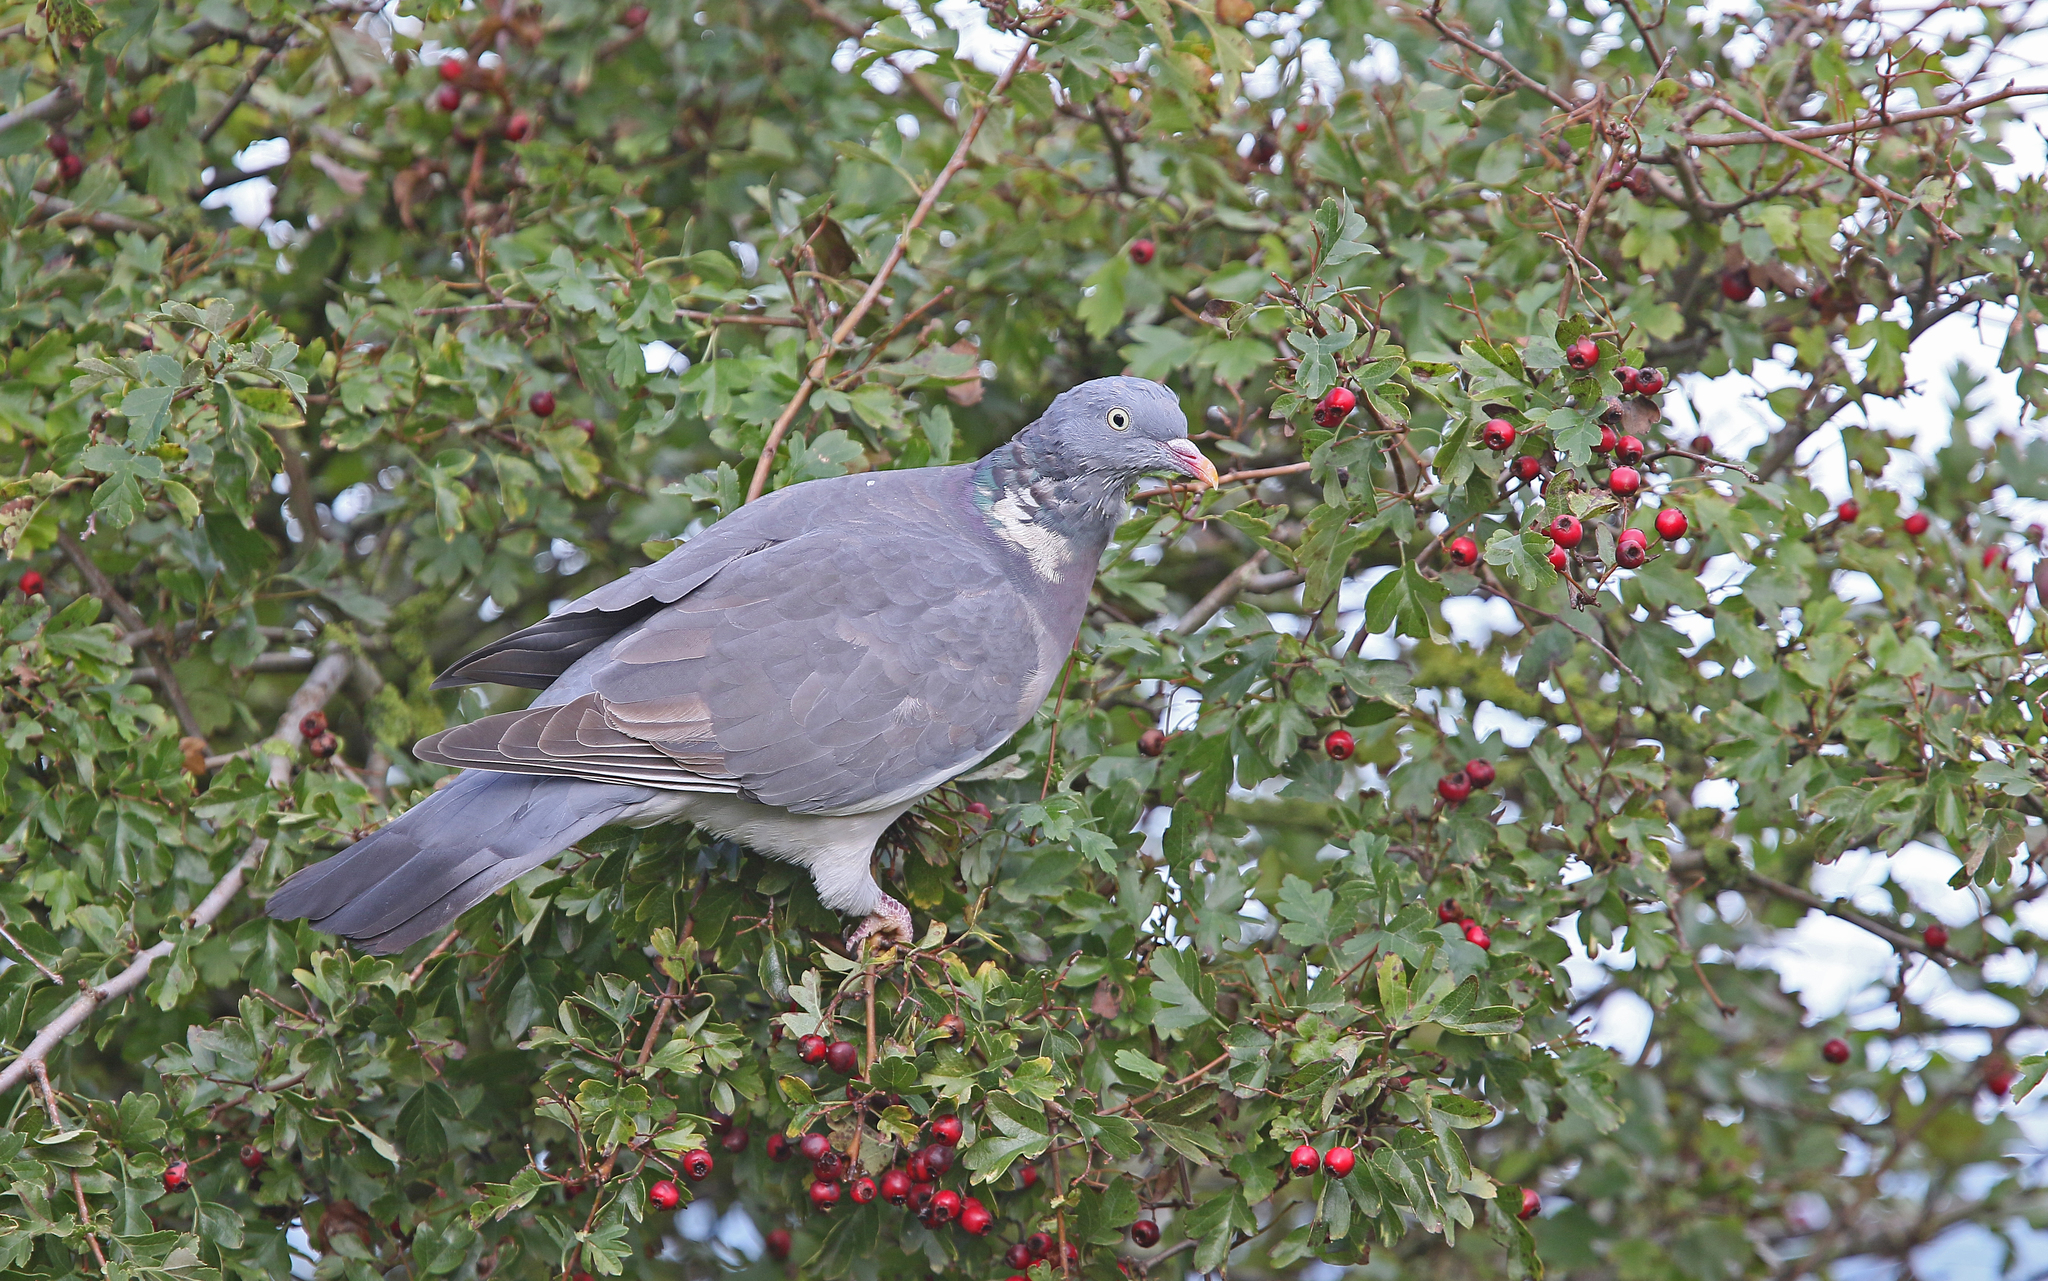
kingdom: Animalia
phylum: Chordata
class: Aves
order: Columbiformes
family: Columbidae
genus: Columba
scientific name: Columba palumbus
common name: Common wood pigeon
